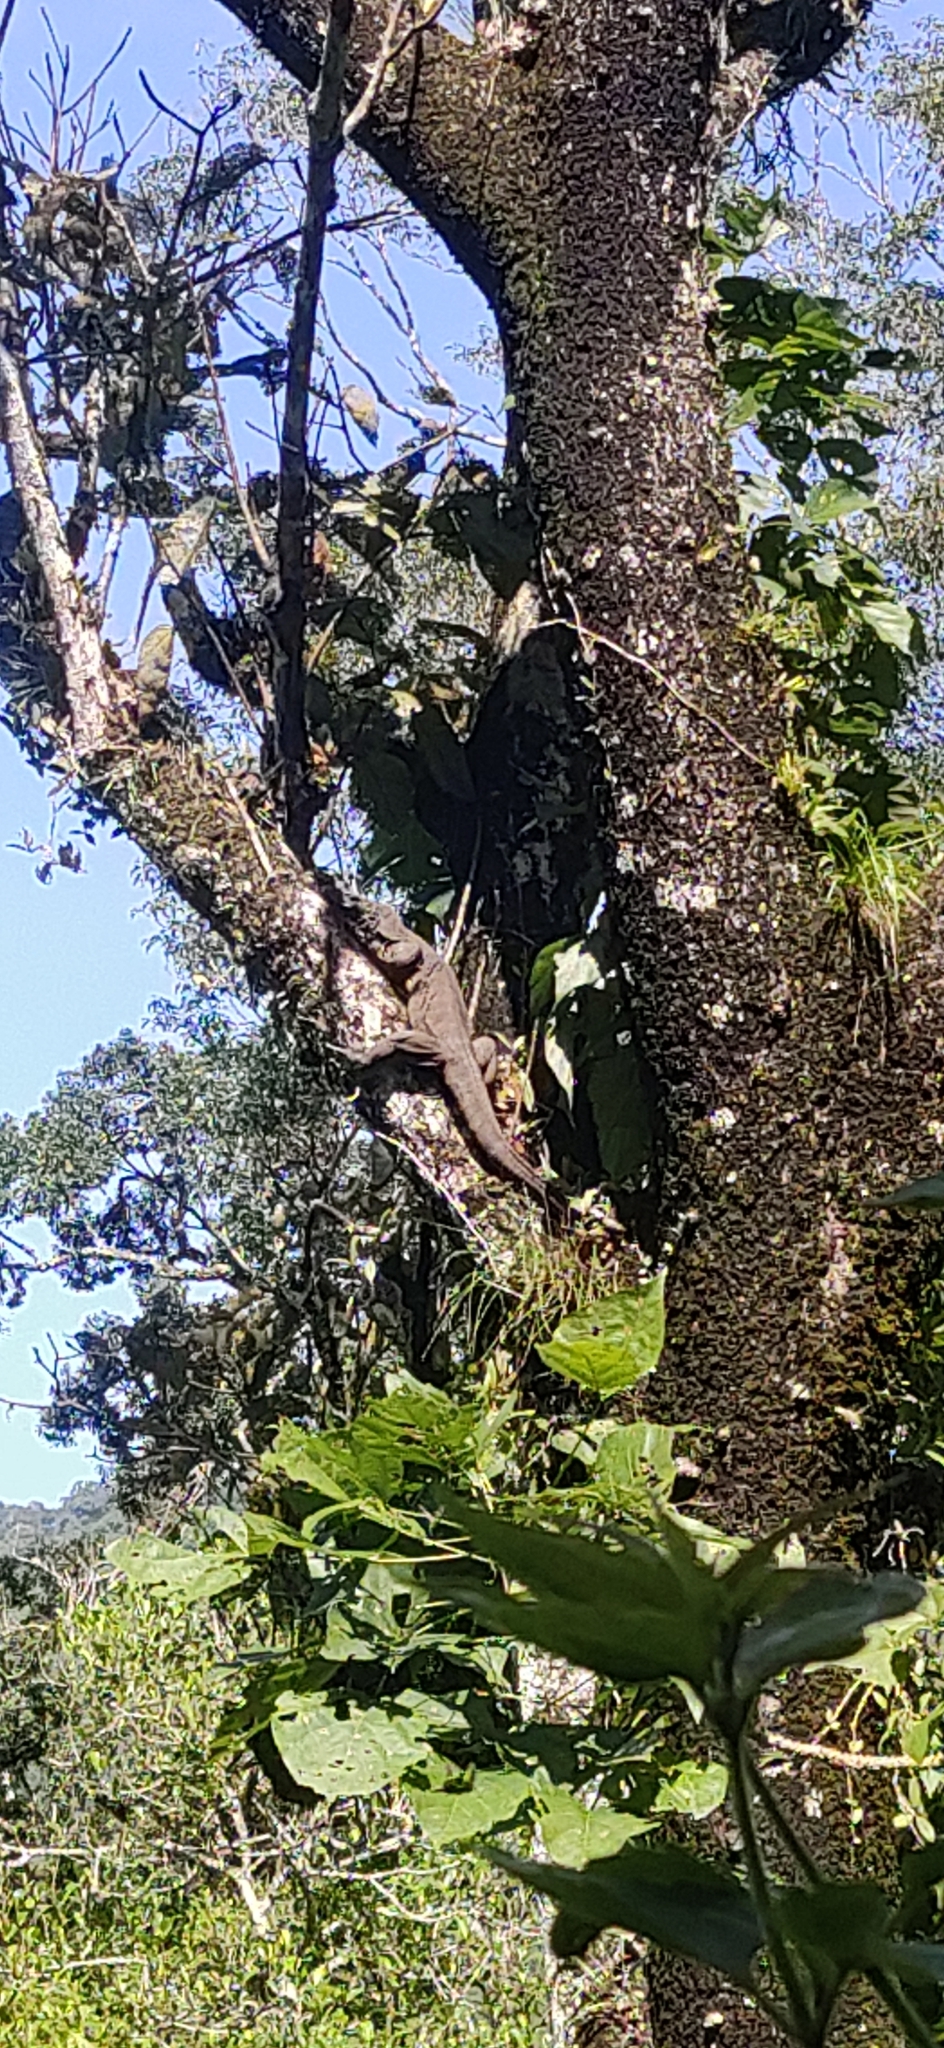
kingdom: Animalia
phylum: Chordata
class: Squamata
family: Varanidae
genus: Varanus
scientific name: Varanus bengalensis
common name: Bengal monitor
